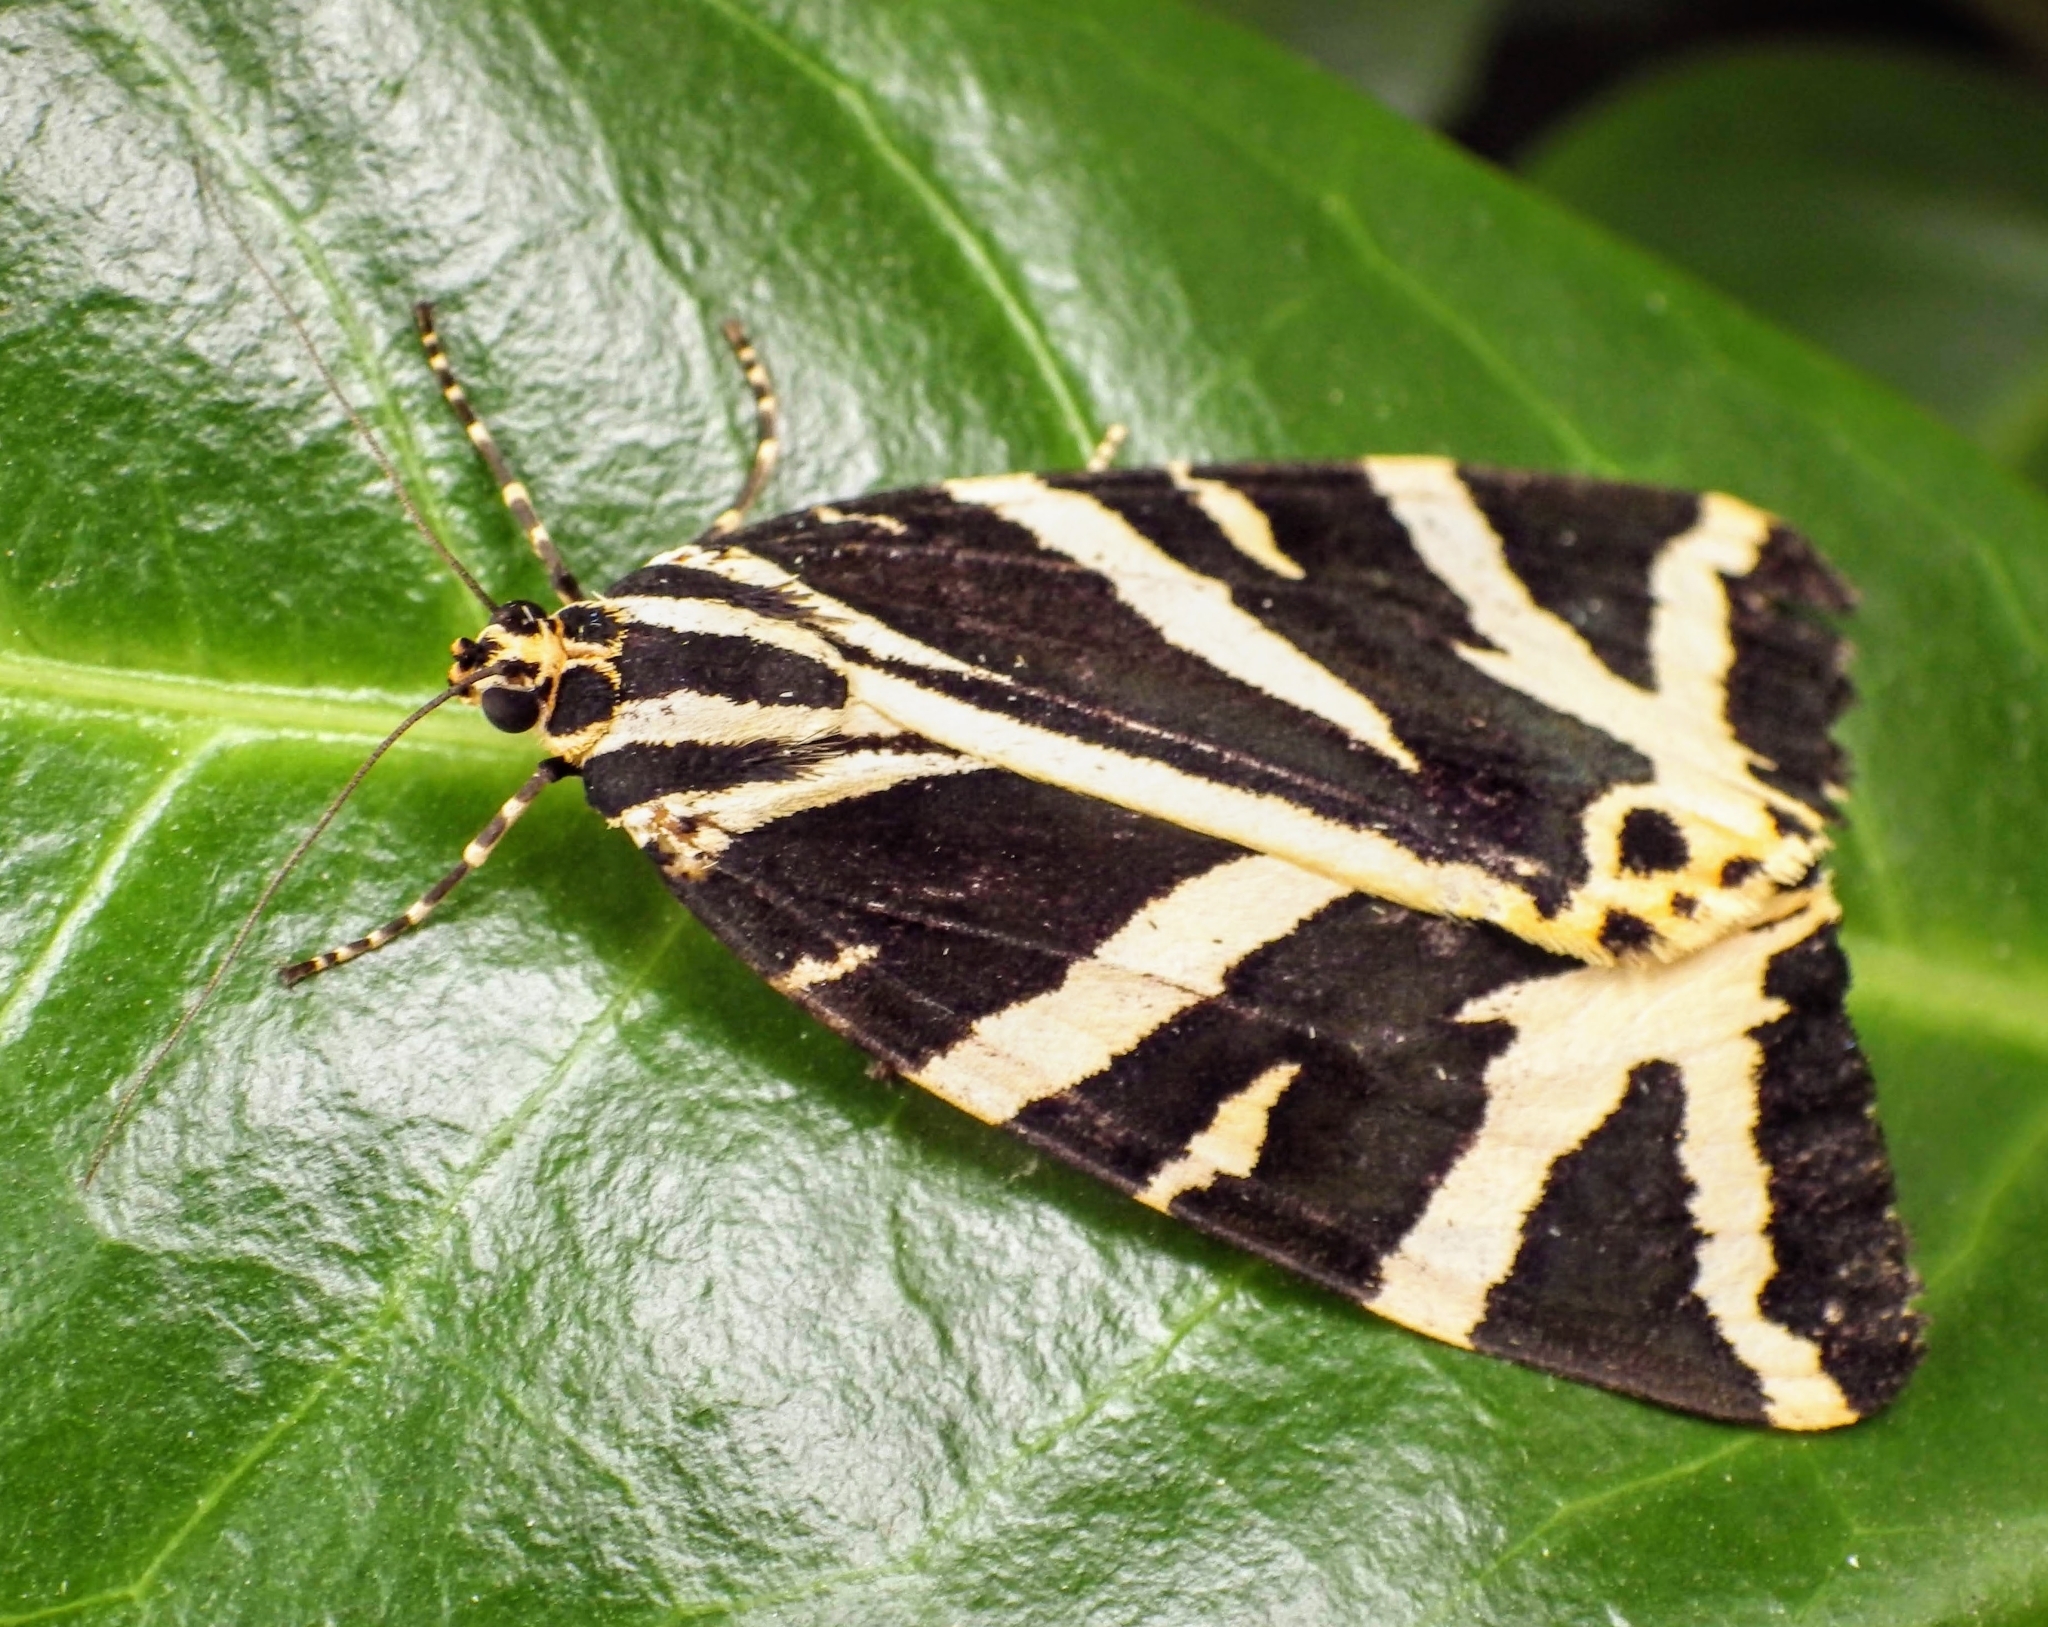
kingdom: Animalia
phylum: Arthropoda
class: Insecta
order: Lepidoptera
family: Erebidae
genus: Euplagia
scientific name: Euplagia quadripunctaria
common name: Jersey tiger
